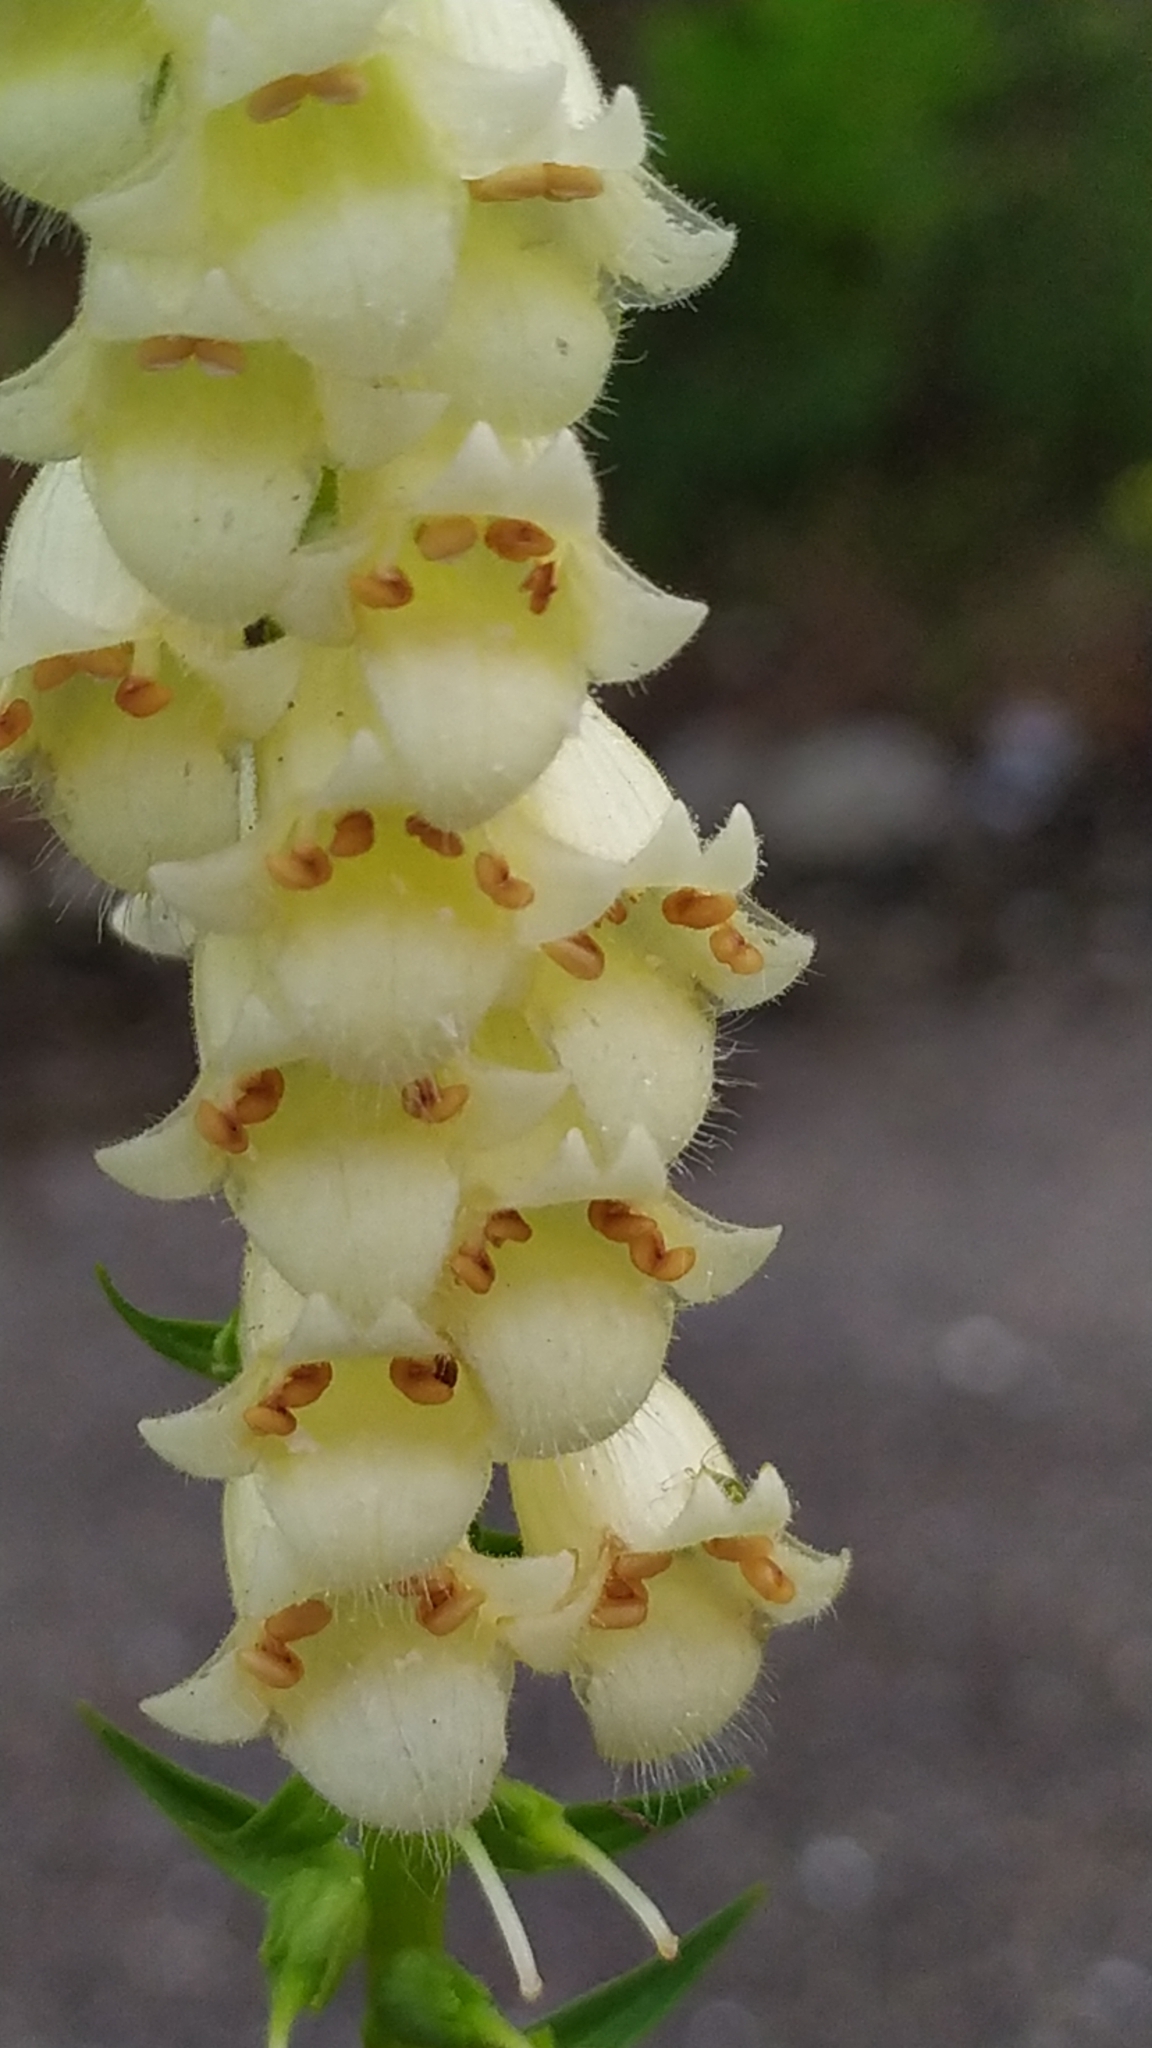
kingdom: Plantae
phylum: Tracheophyta
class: Magnoliopsida
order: Lamiales
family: Plantaginaceae
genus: Digitalis
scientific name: Digitalis lutea
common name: Straw foxglove
